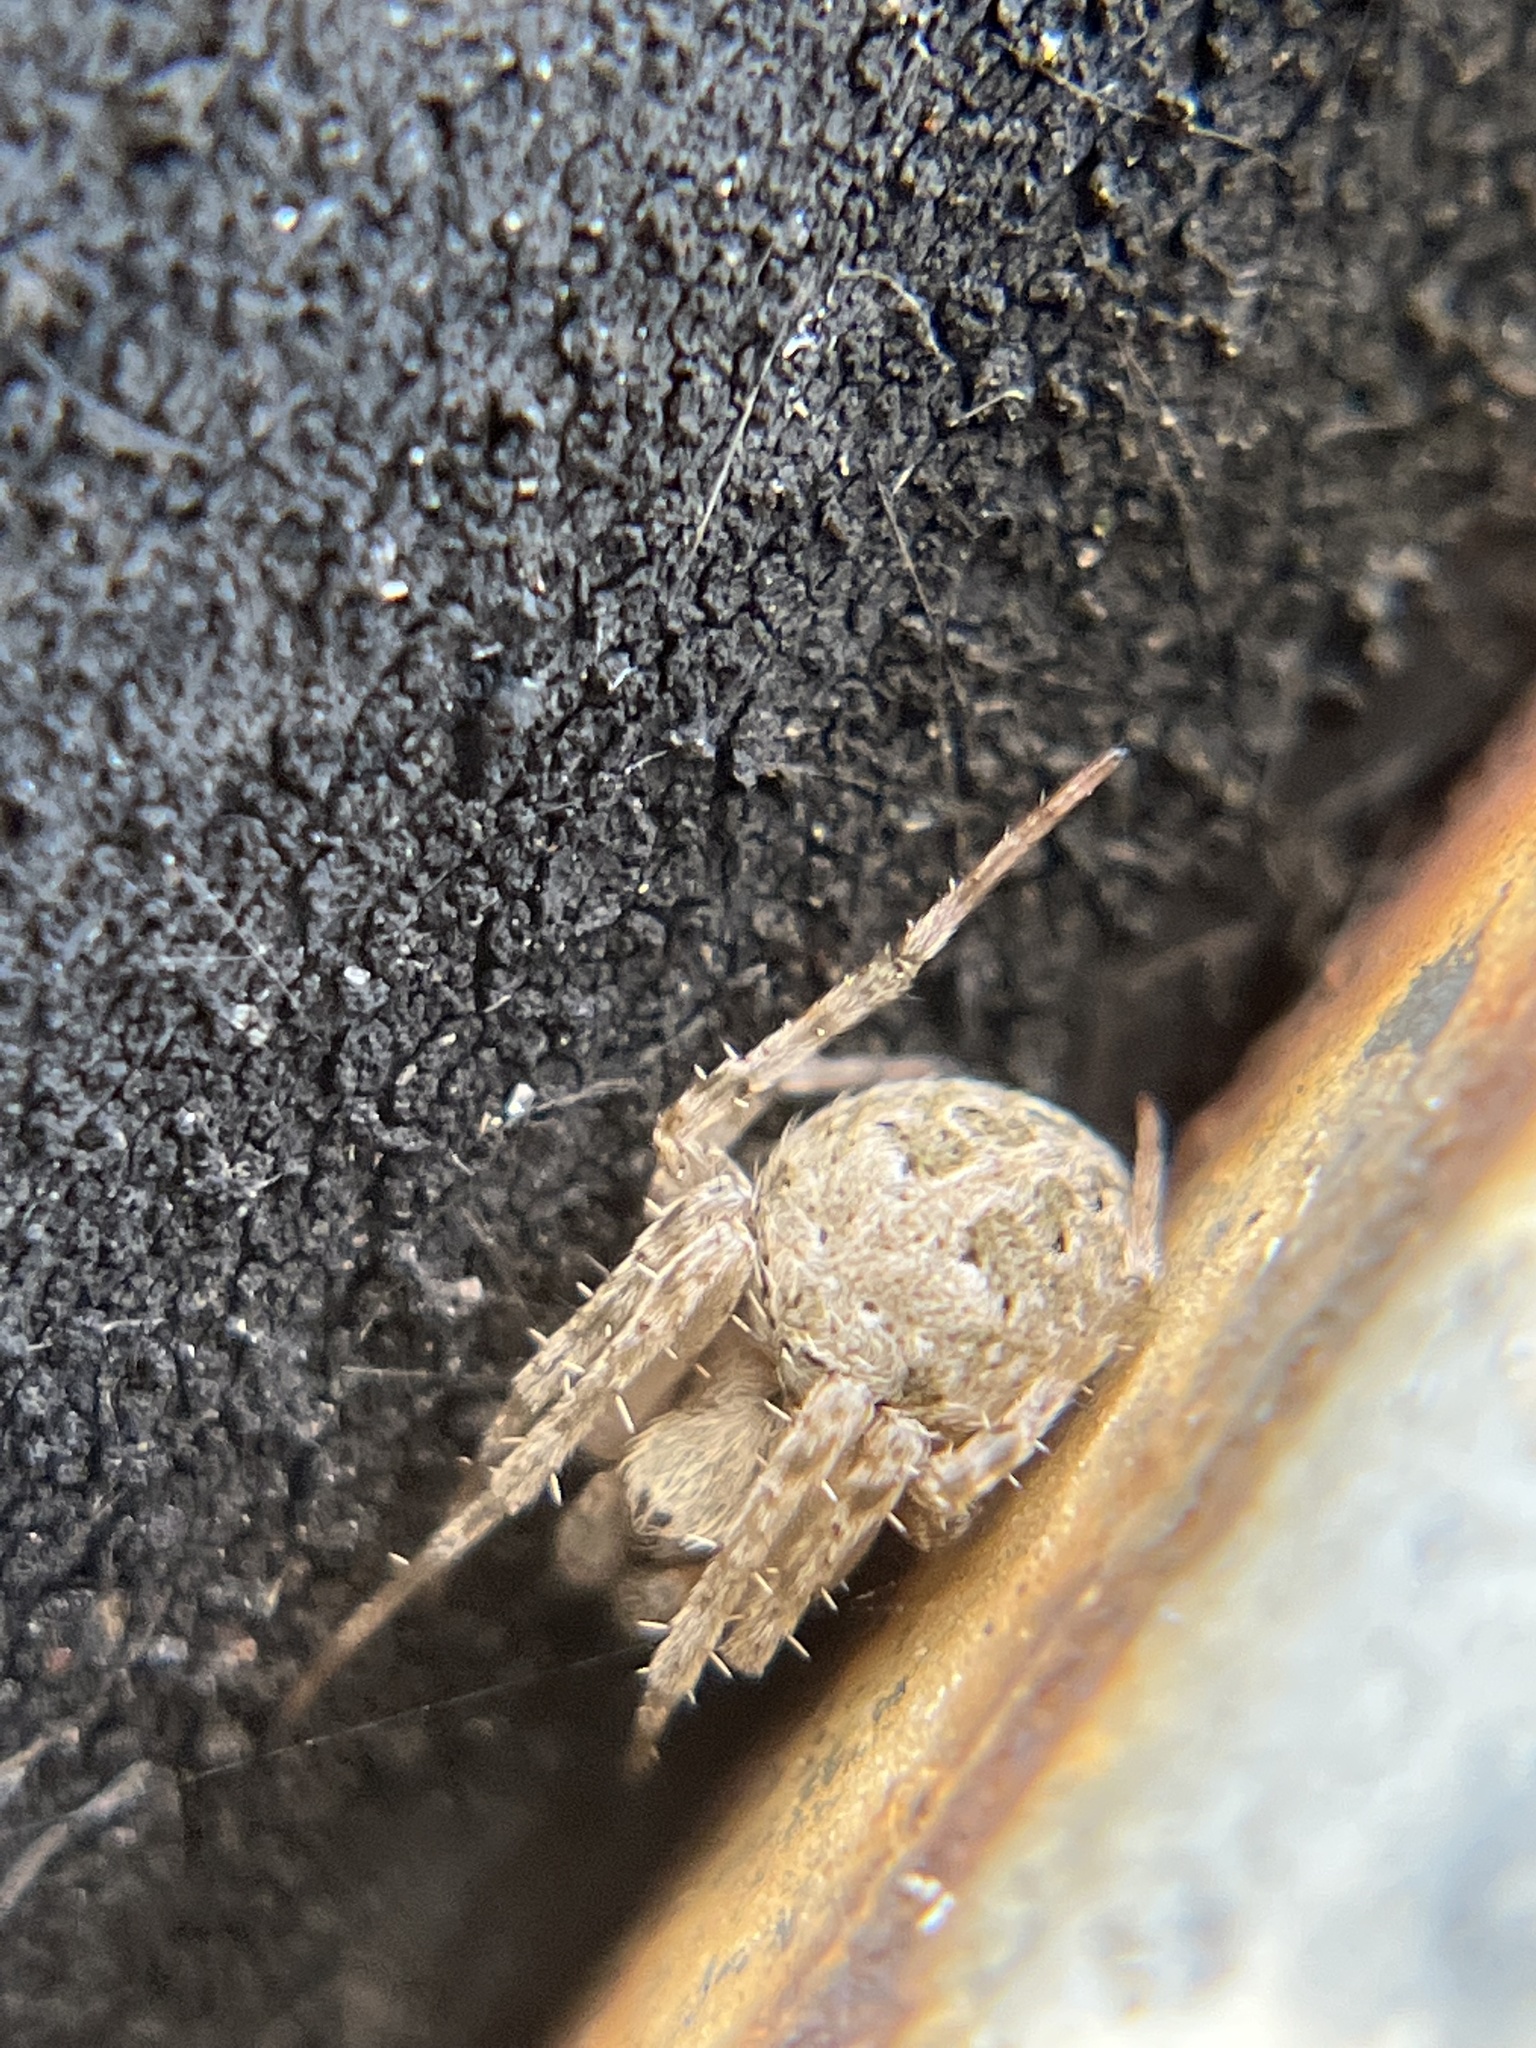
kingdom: Animalia
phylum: Arthropoda
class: Arachnida
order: Araneae
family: Araneidae
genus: Neoscona
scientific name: Neoscona nautica
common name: Orb weavers
